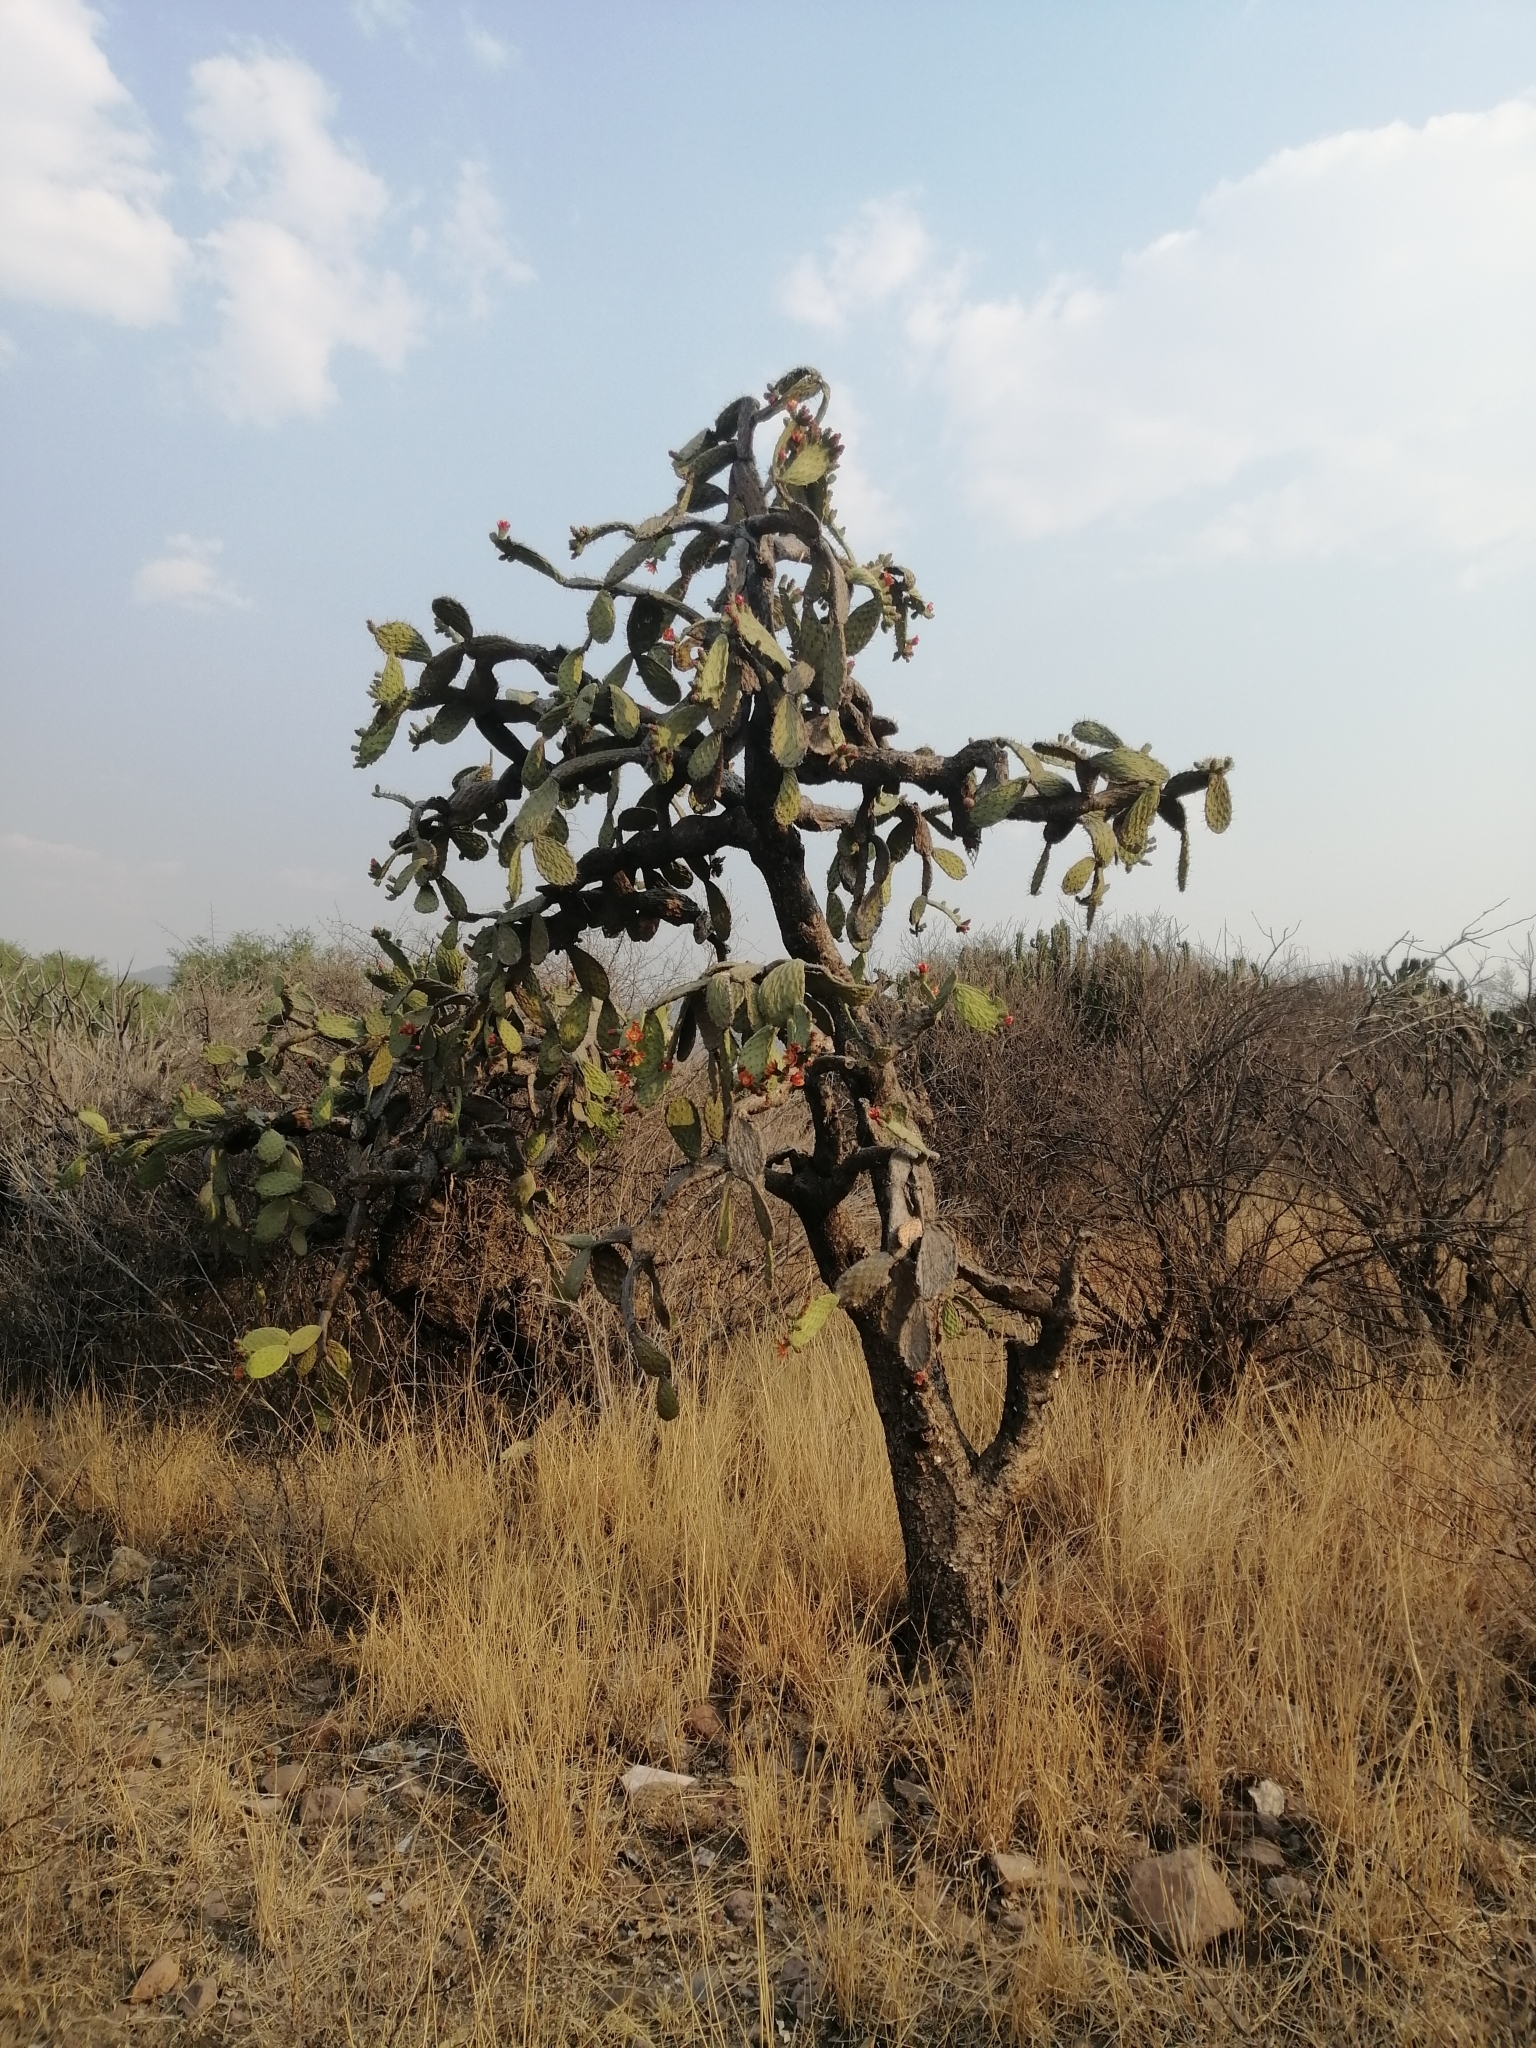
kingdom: Plantae
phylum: Tracheophyta
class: Magnoliopsida
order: Caryophyllales
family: Cactaceae
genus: Opuntia
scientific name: Opuntia tomentosa
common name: Woollyjoint pricklypear
